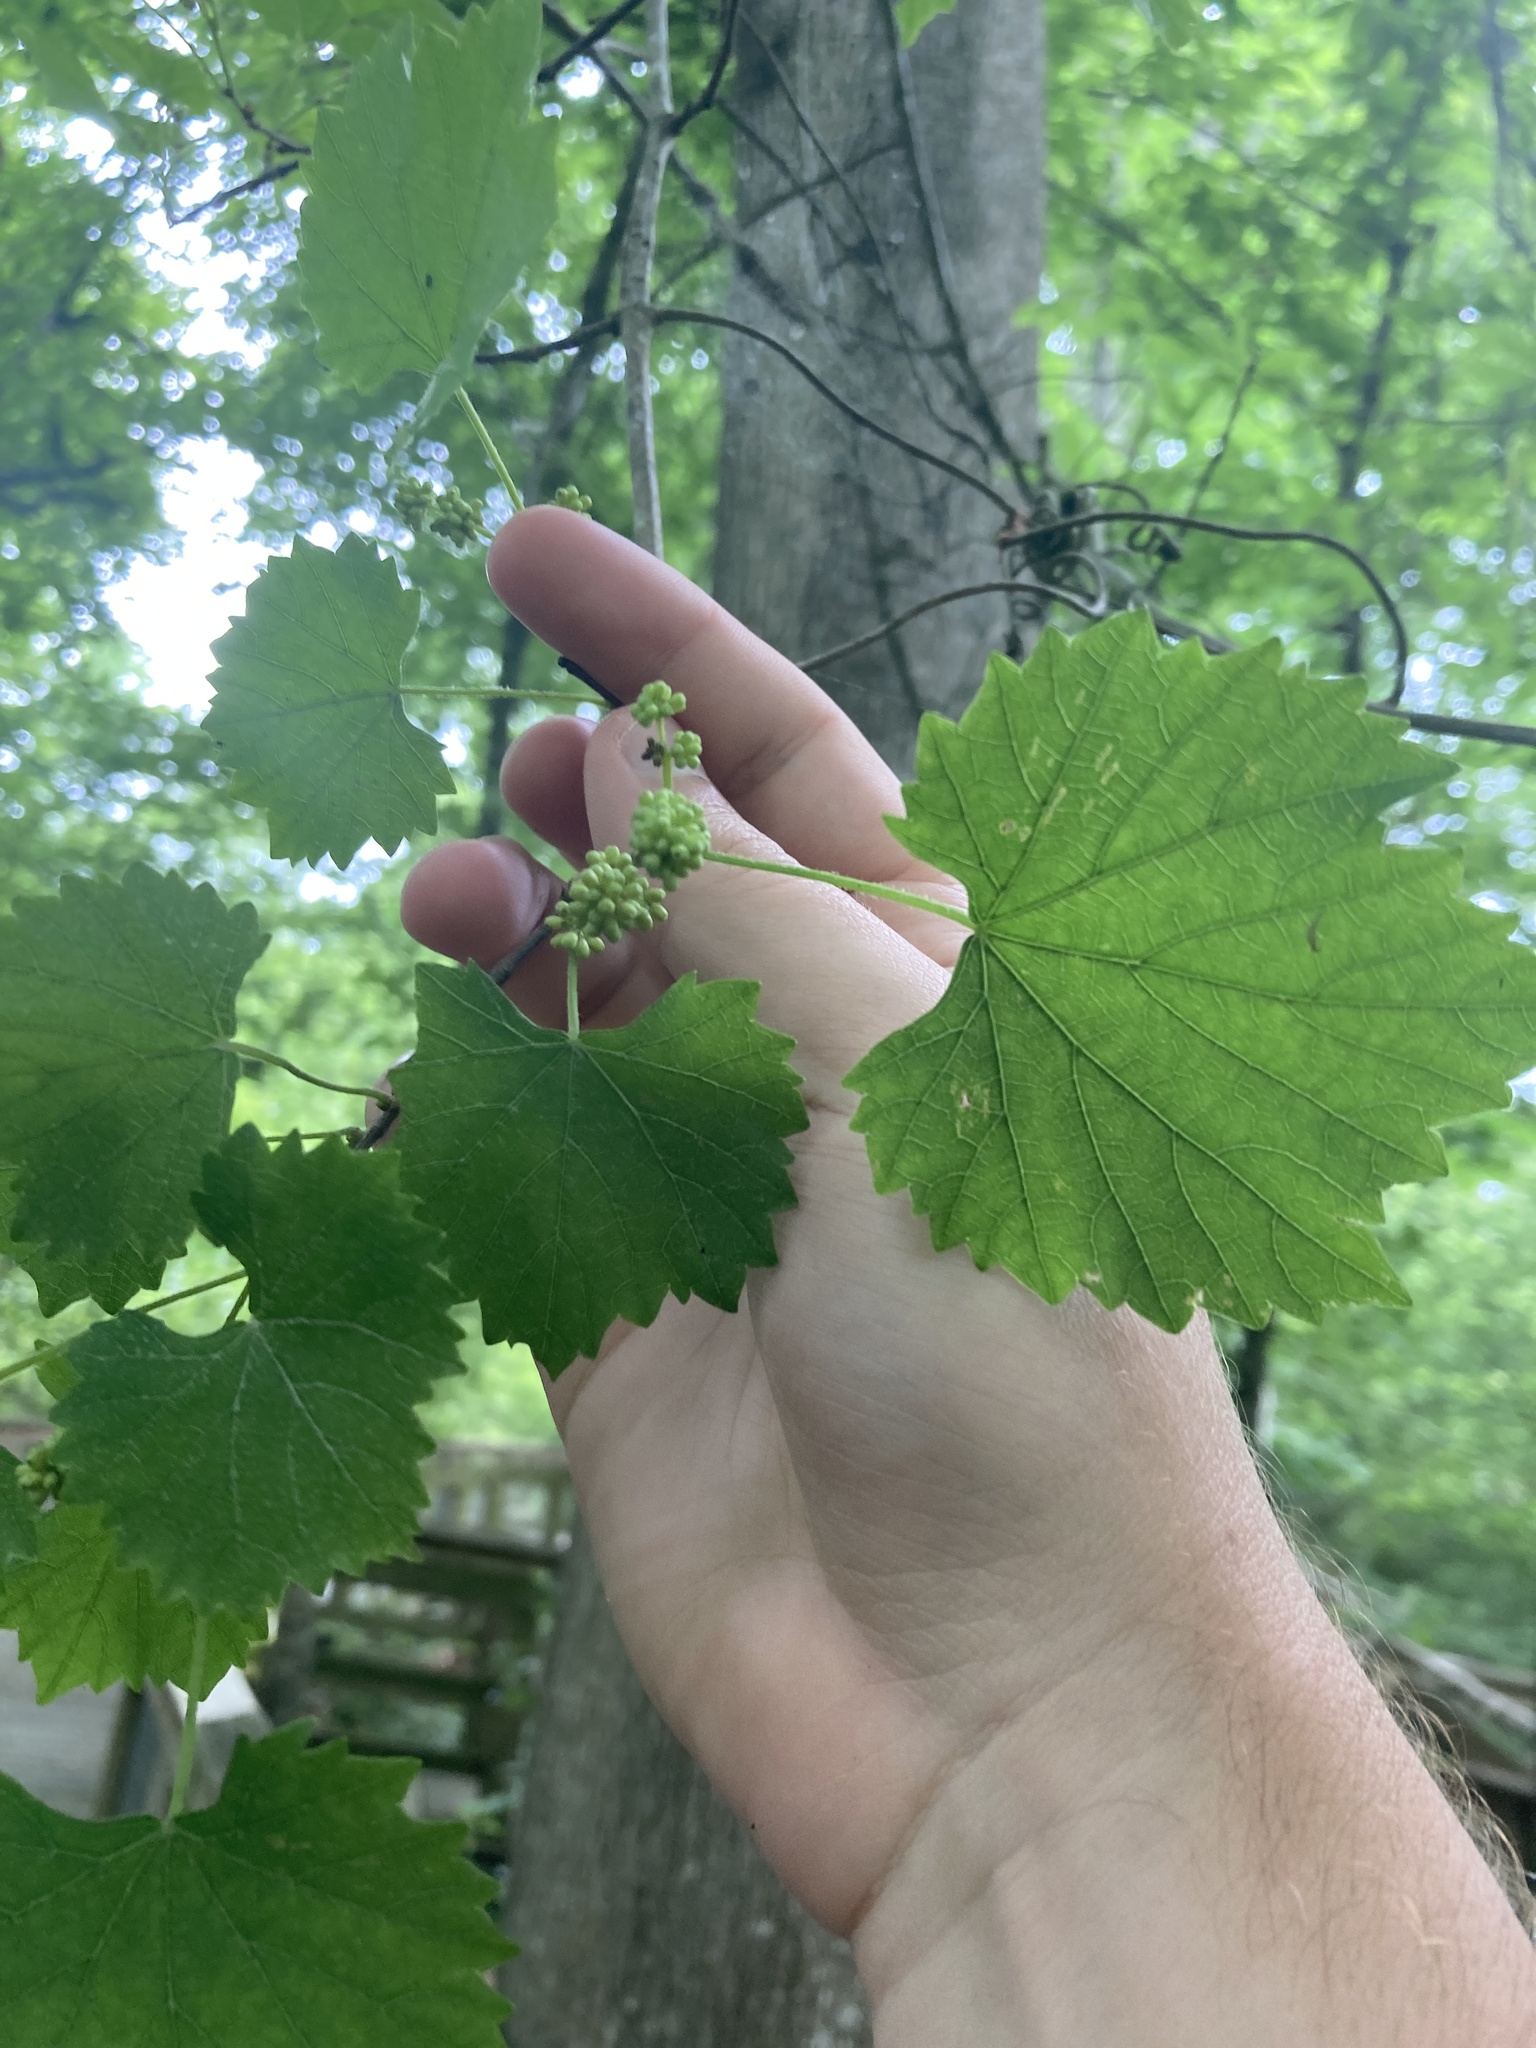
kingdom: Plantae
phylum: Tracheophyta
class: Magnoliopsida
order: Vitales
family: Vitaceae
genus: Vitis
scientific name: Vitis rotundifolia
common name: Muscadine grape
